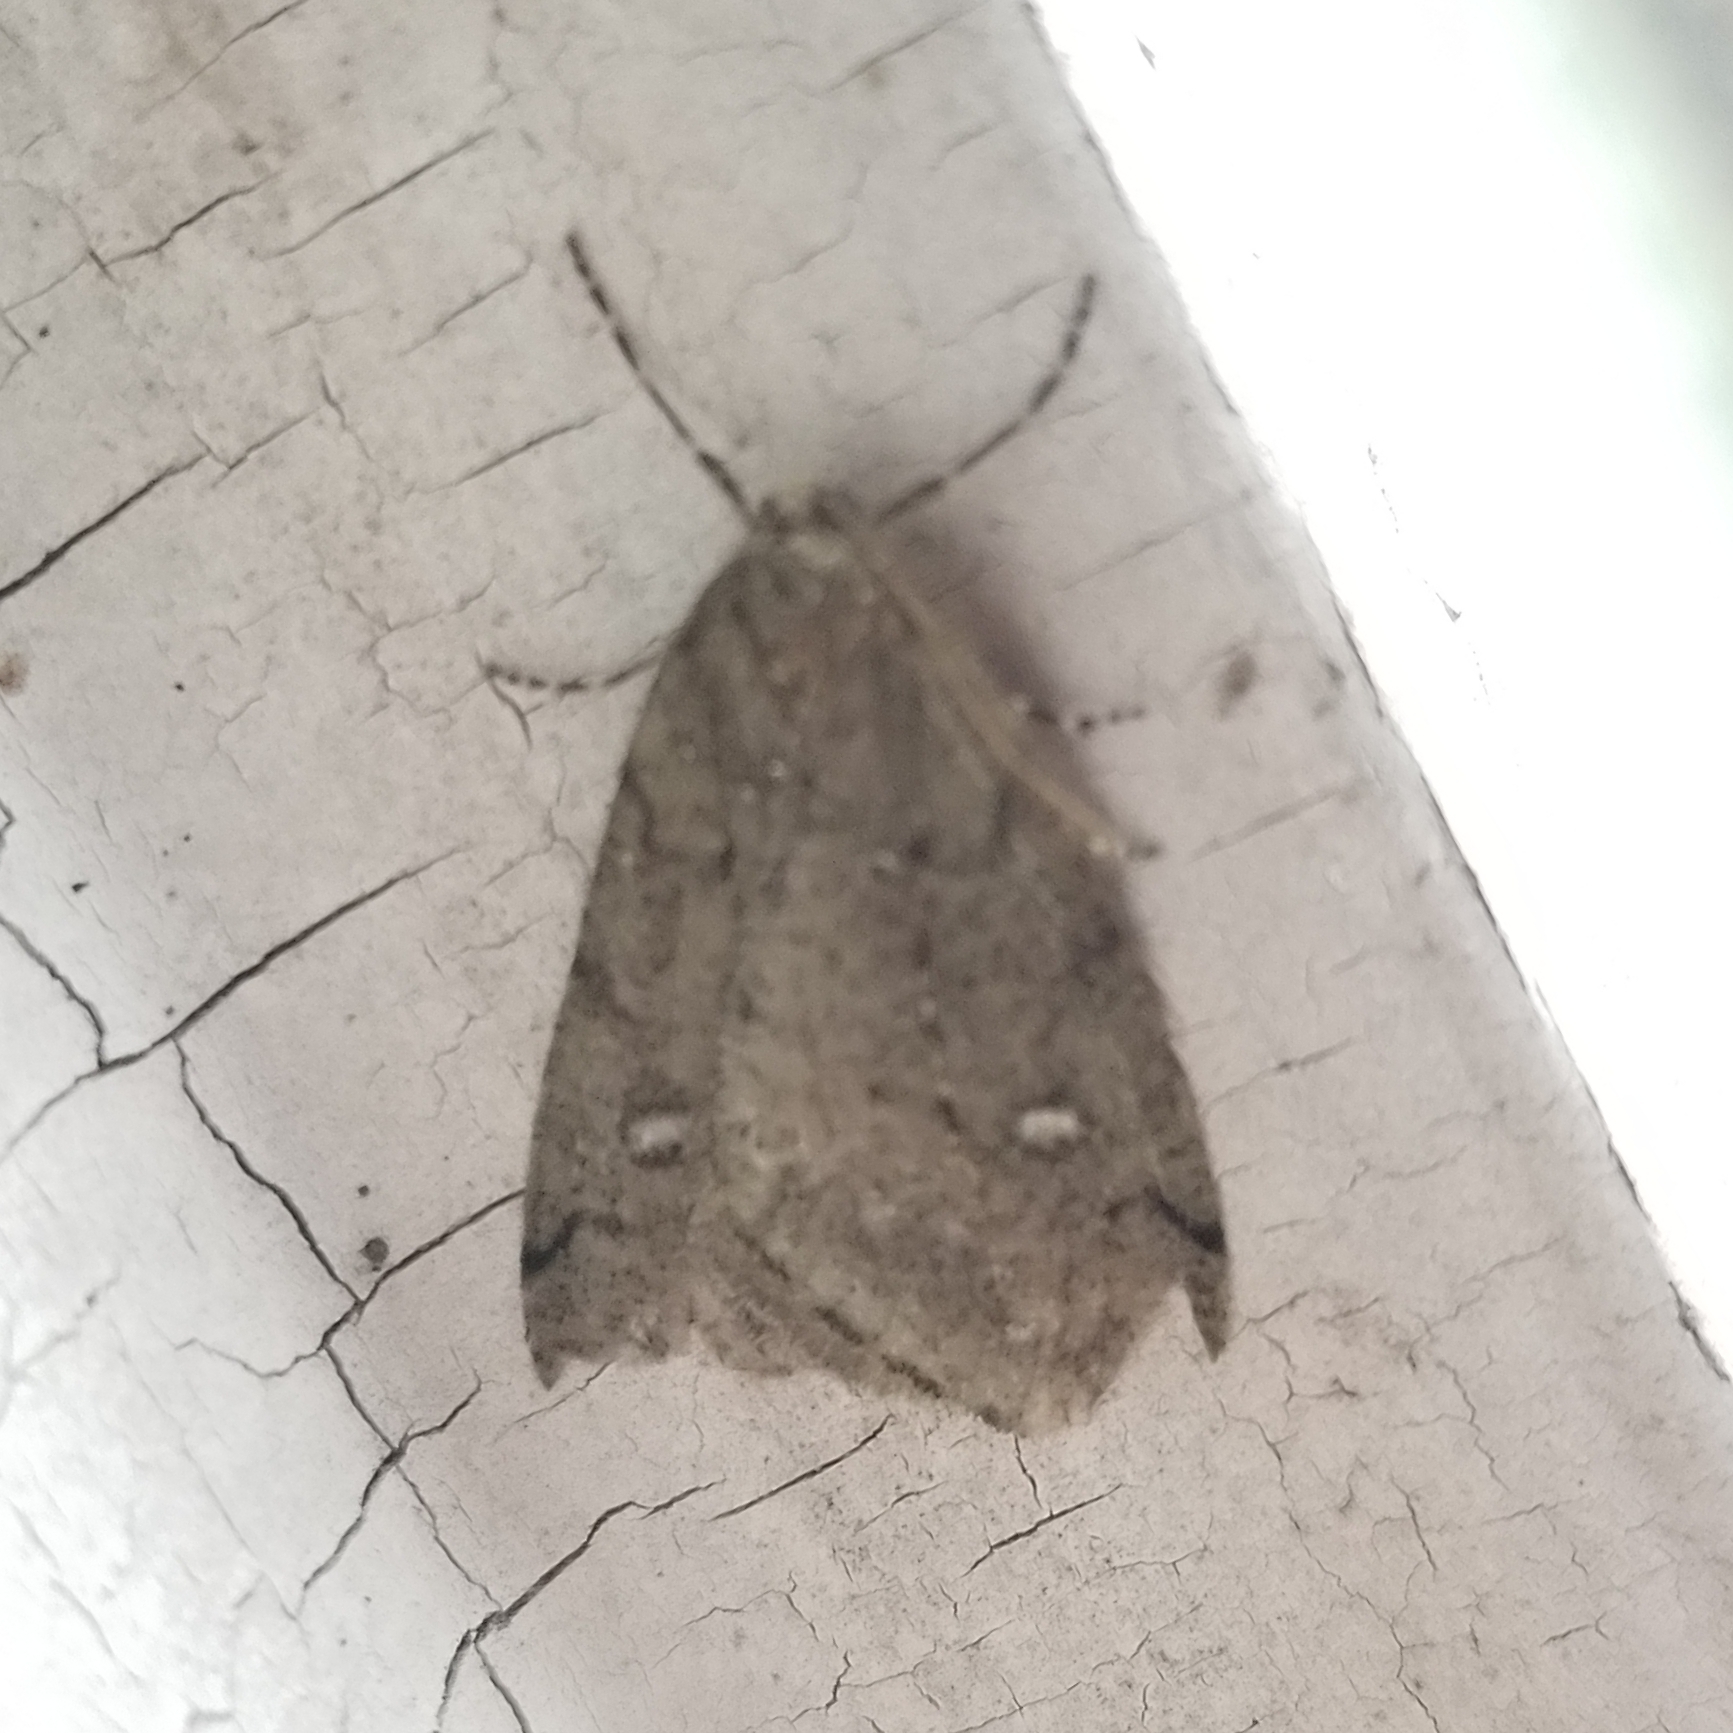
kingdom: Animalia
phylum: Arthropoda
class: Insecta
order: Lepidoptera
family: Geometridae
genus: Paleacrita
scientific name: Paleacrita merriccata
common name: White-spotted canker worm
